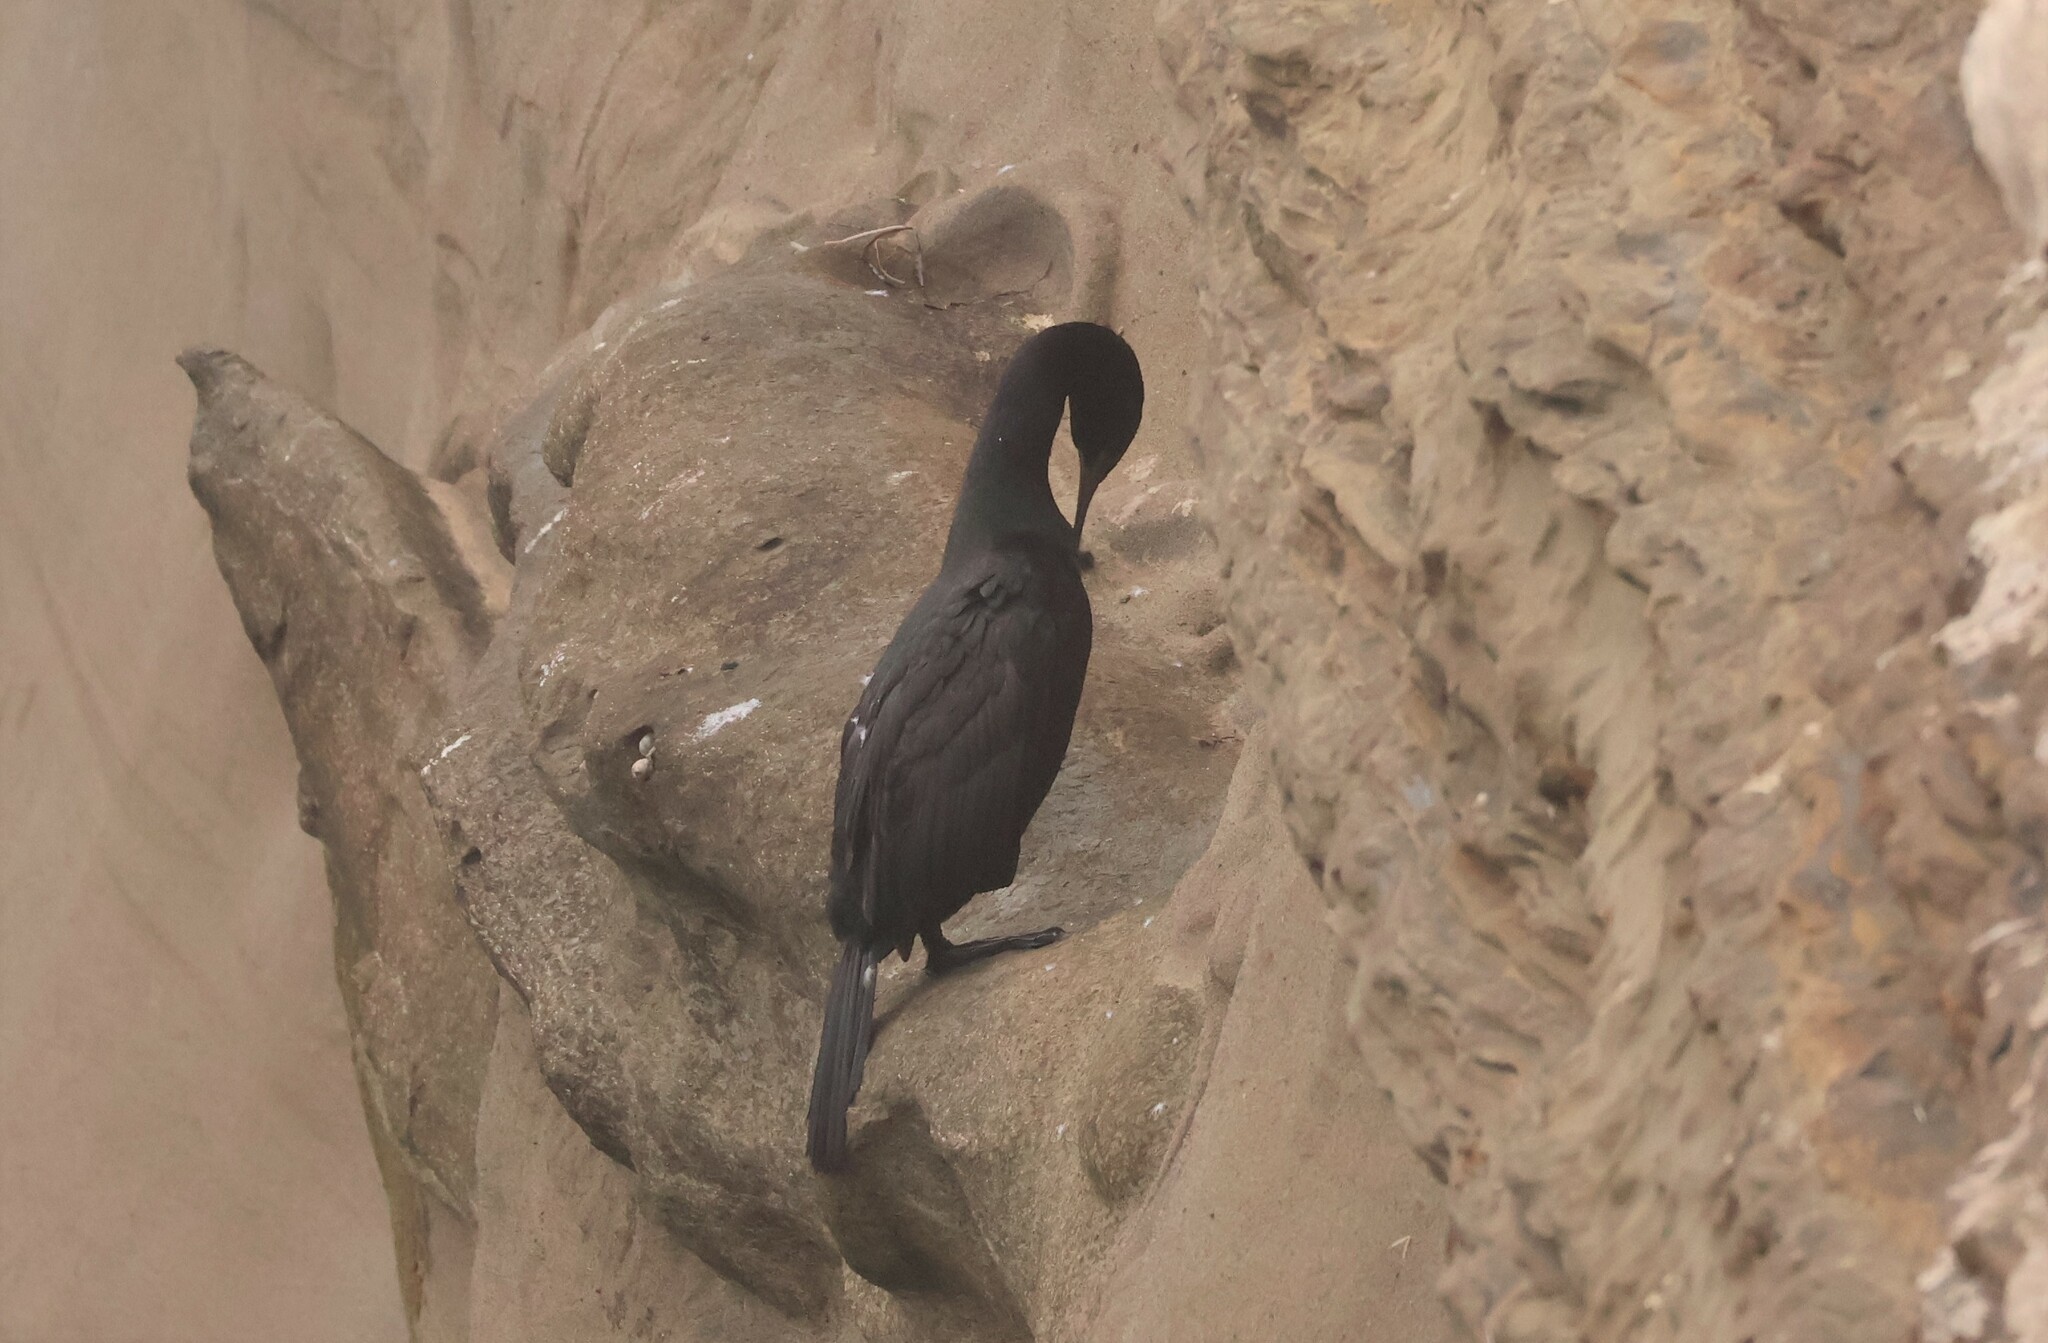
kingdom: Animalia
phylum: Chordata
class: Aves
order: Suliformes
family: Phalacrocoracidae
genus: Phalacrocorax
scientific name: Phalacrocorax pelagicus
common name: Pelagic cormorant
